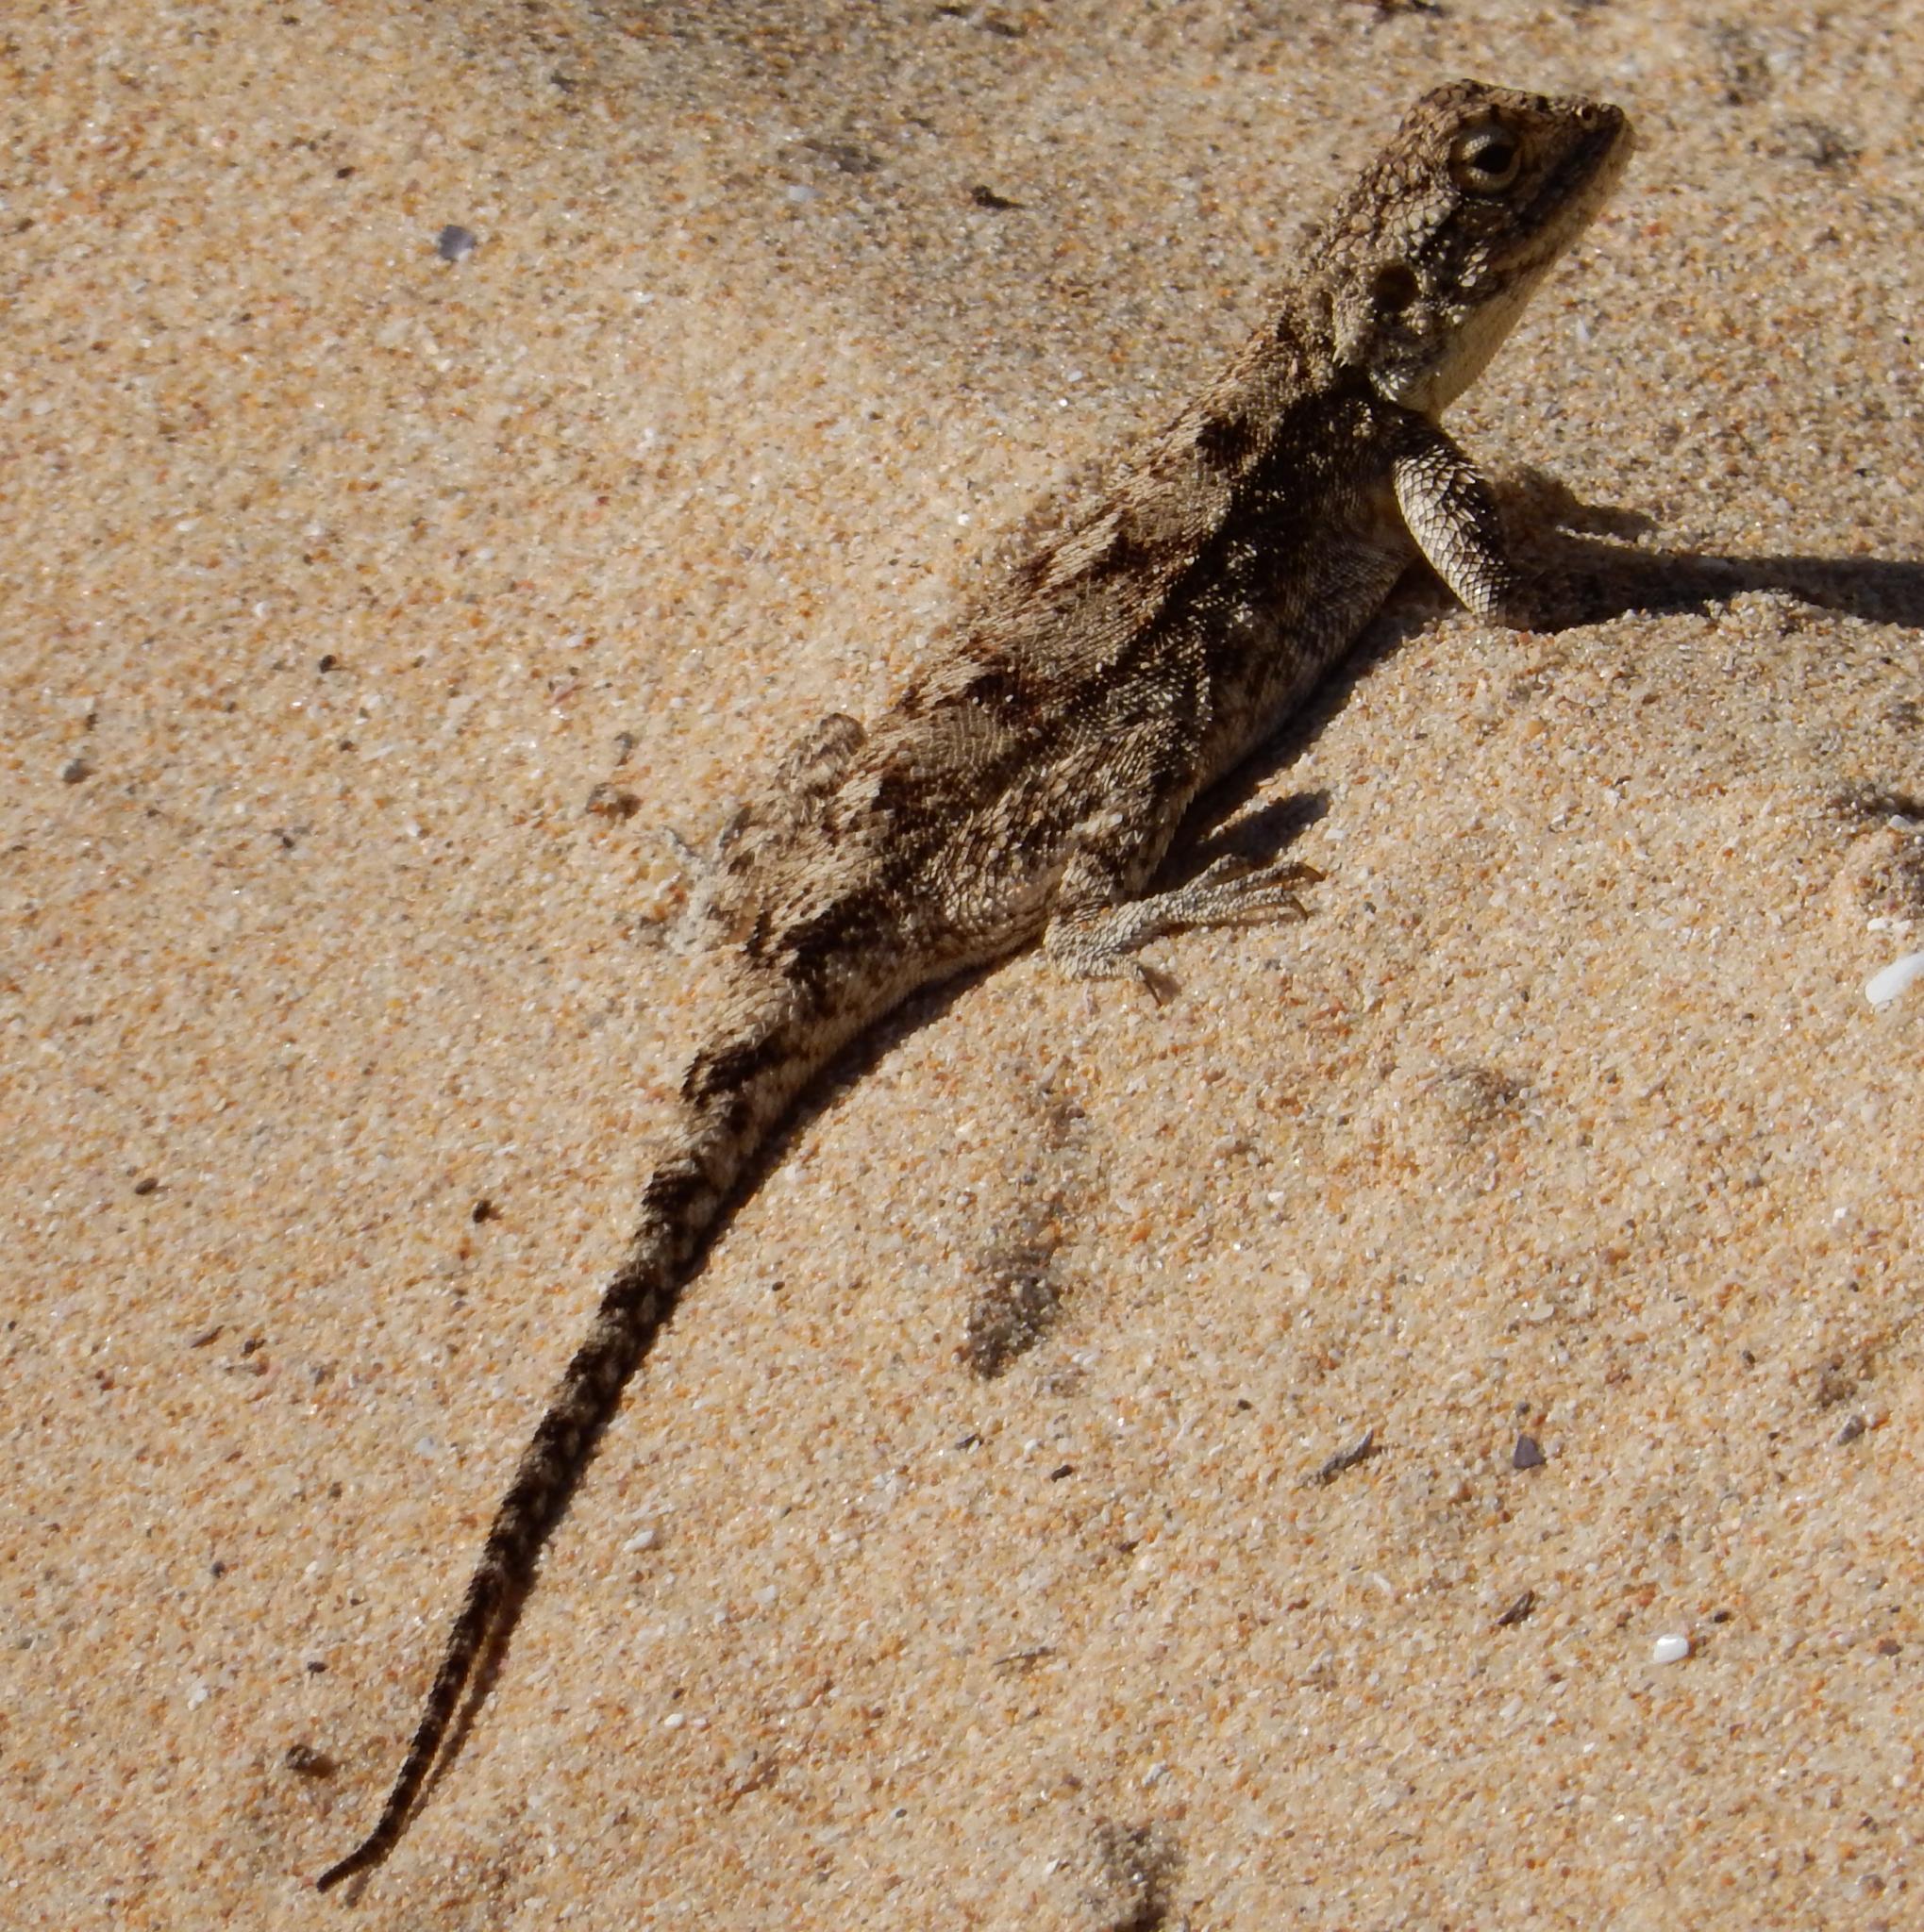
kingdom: Animalia
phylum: Chordata
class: Squamata
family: Agamidae
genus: Agama
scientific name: Agama atra
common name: Southern african rock agama
